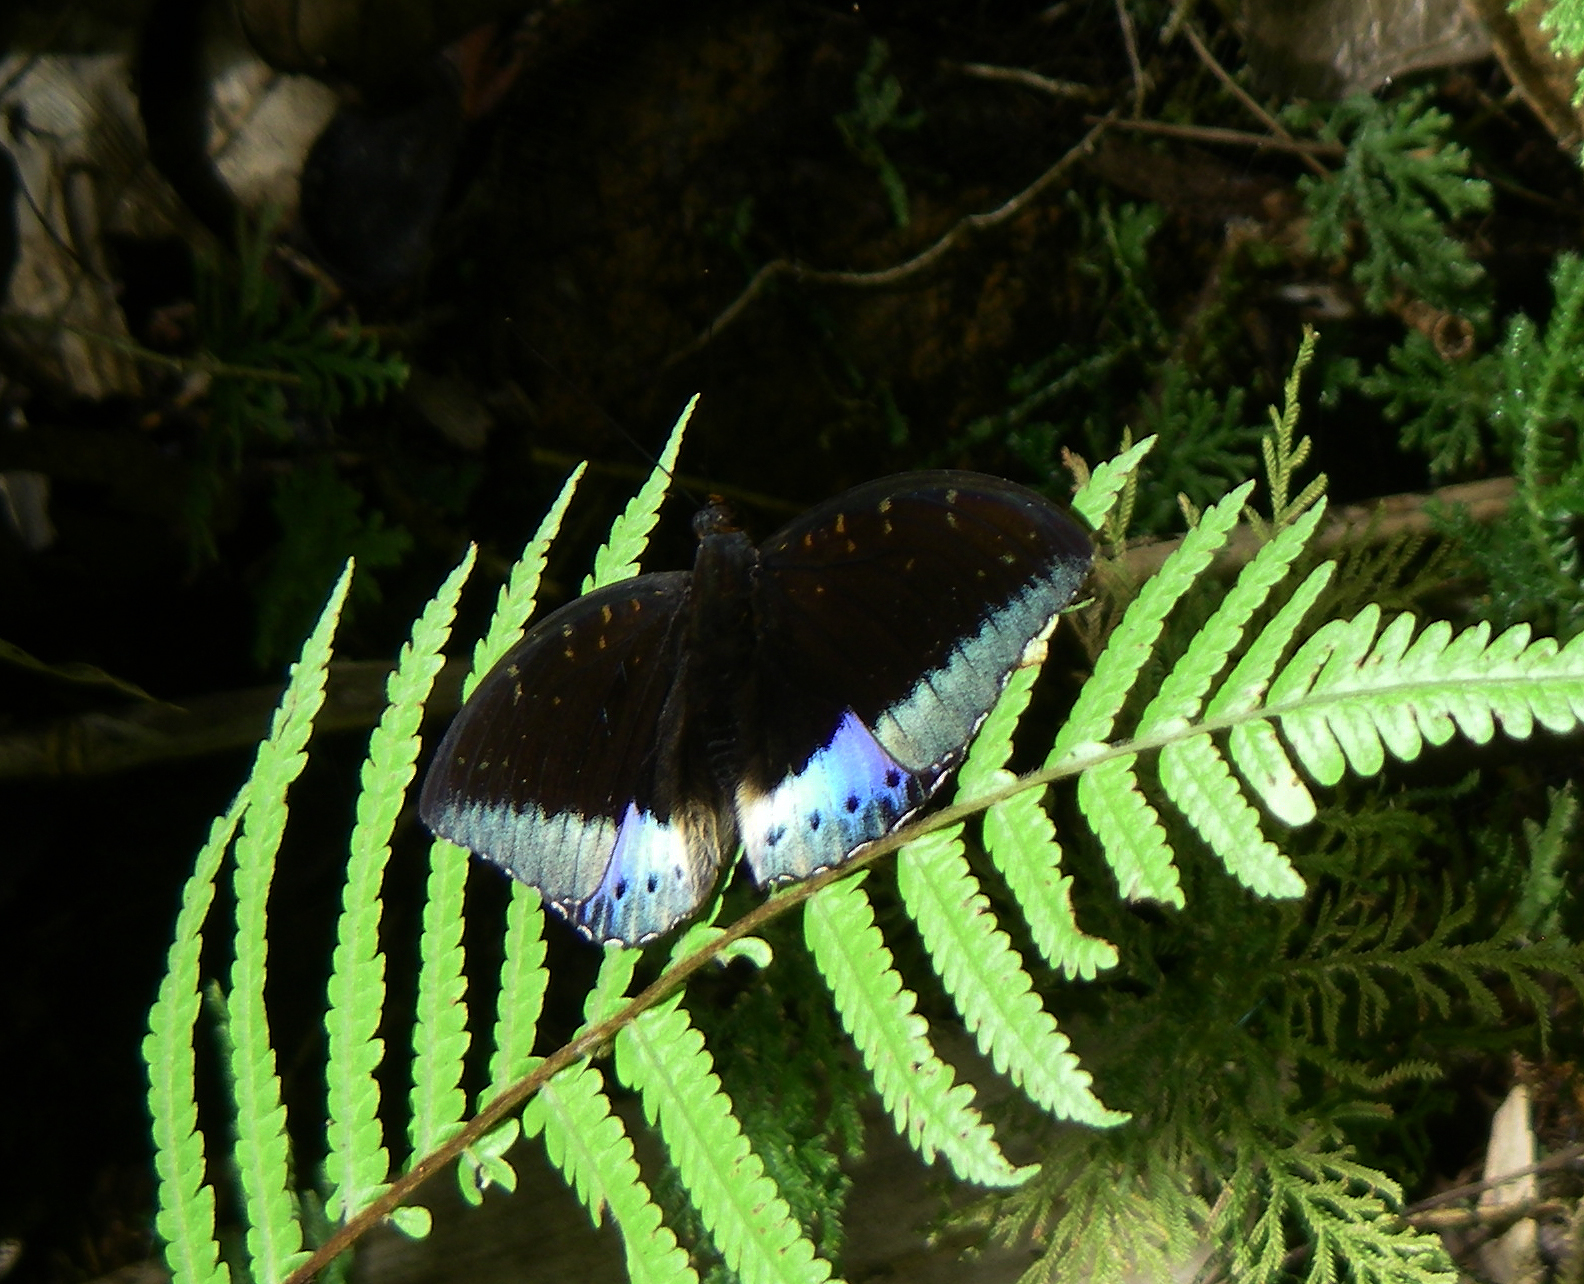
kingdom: Animalia
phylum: Arthropoda
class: Insecta
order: Lepidoptera
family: Nymphalidae
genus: Lexias
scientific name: Lexias dirtea
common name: Black-tipped archduke
